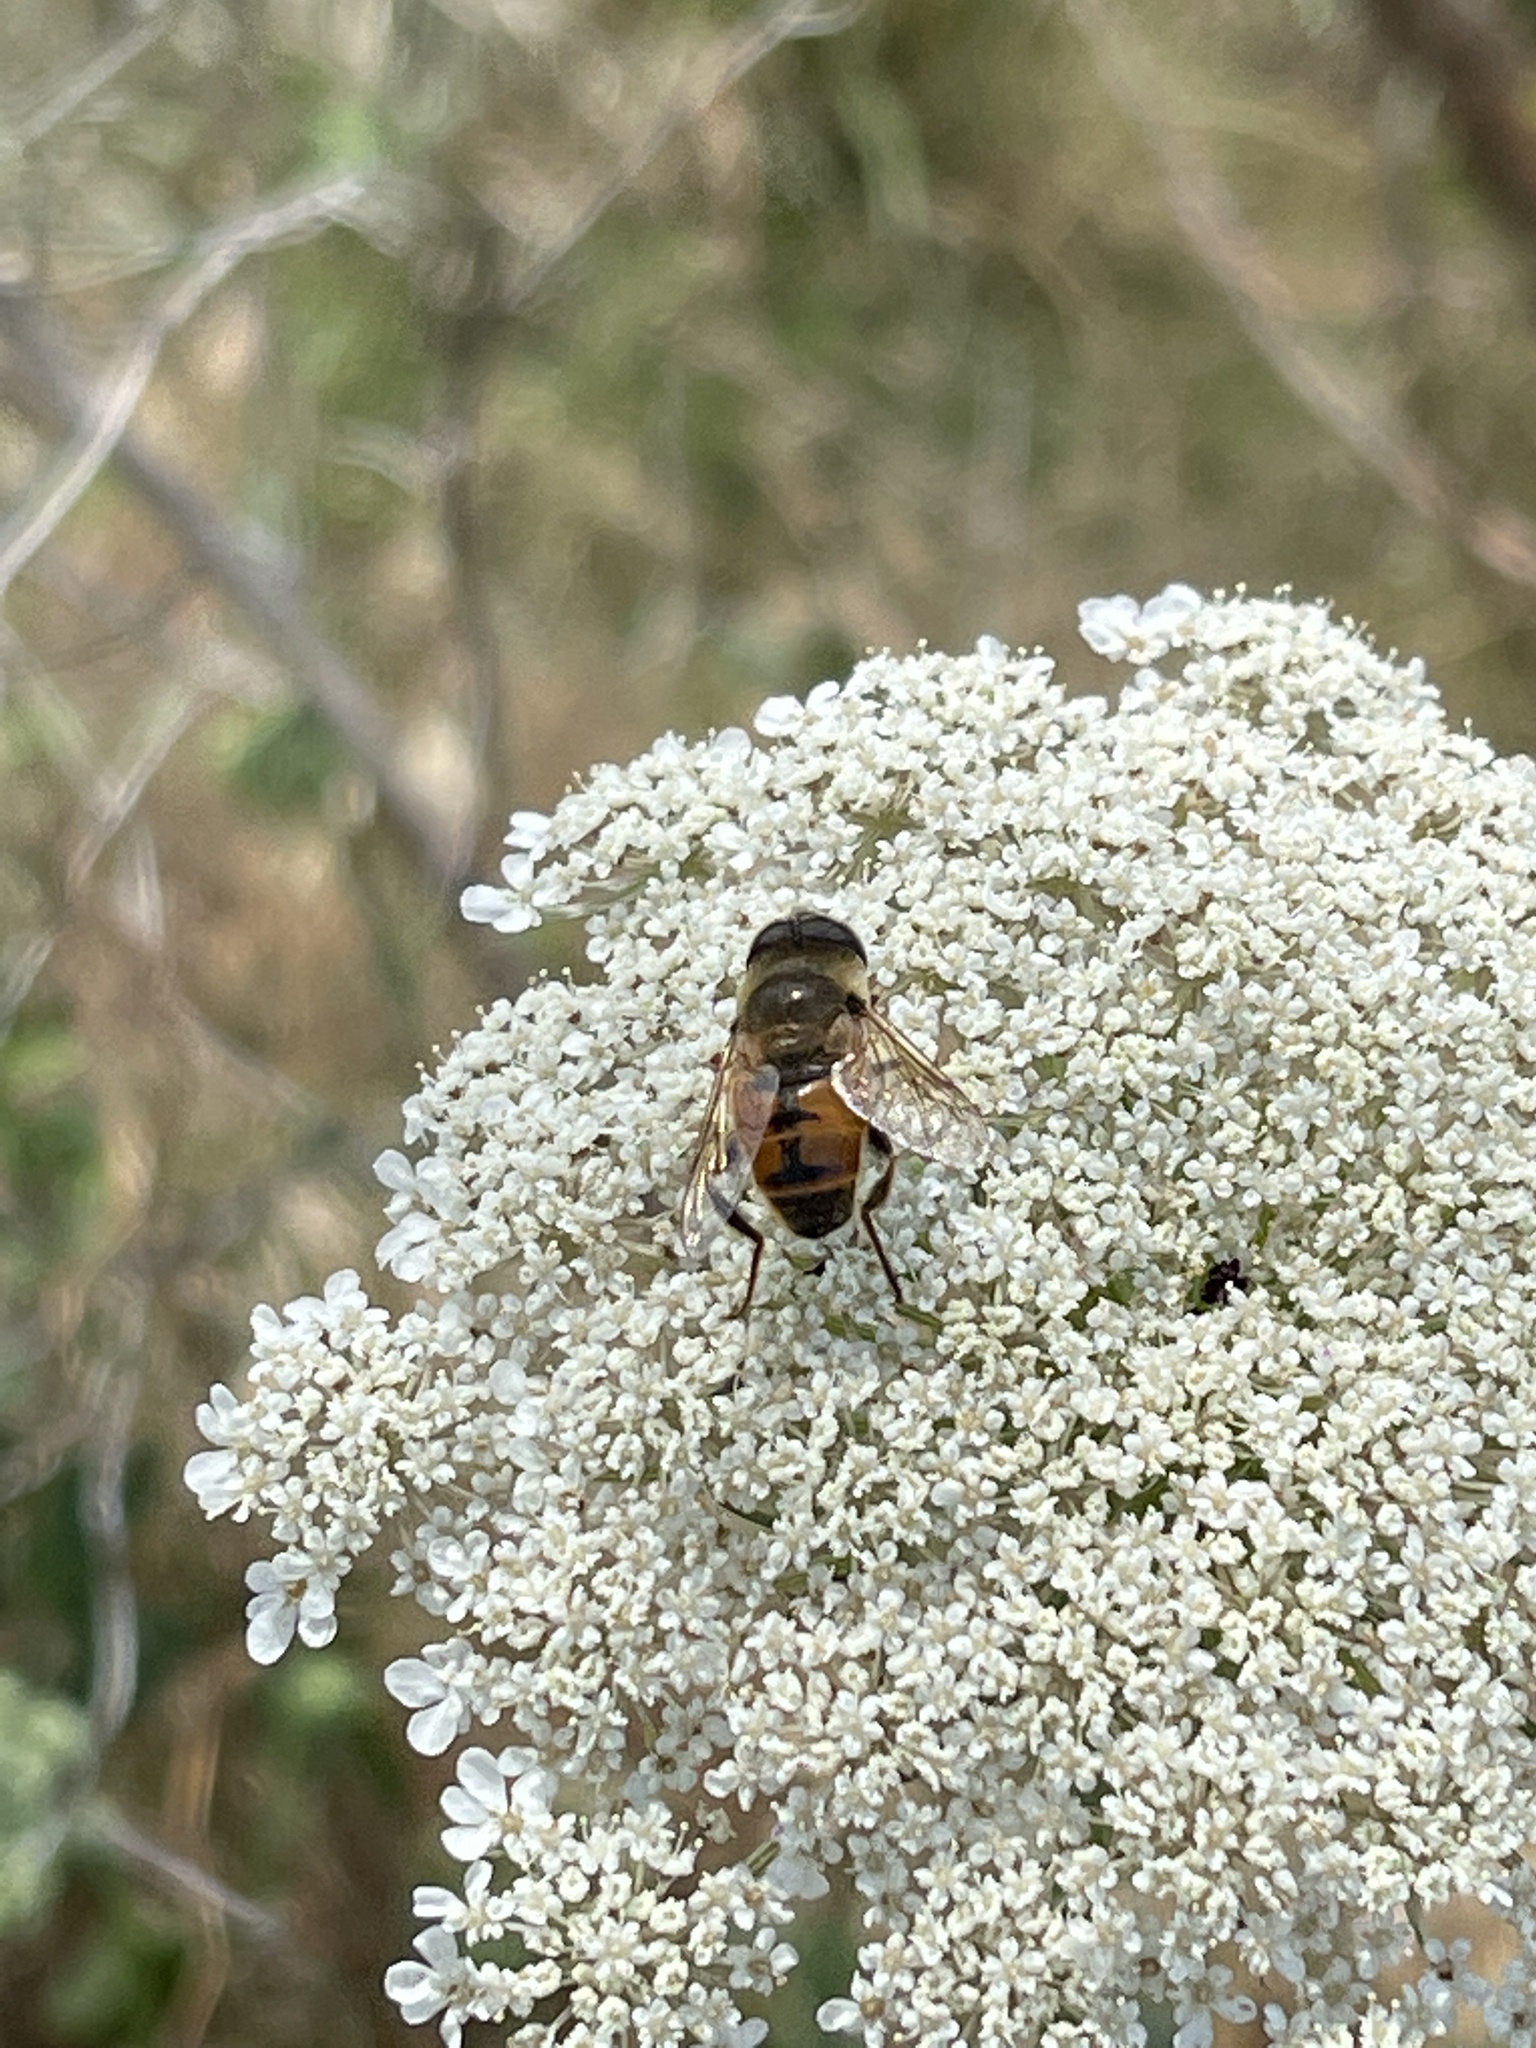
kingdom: Animalia
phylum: Arthropoda
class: Insecta
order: Diptera
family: Syrphidae
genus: Eristalis
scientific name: Eristalis tenax
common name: Drone fly
